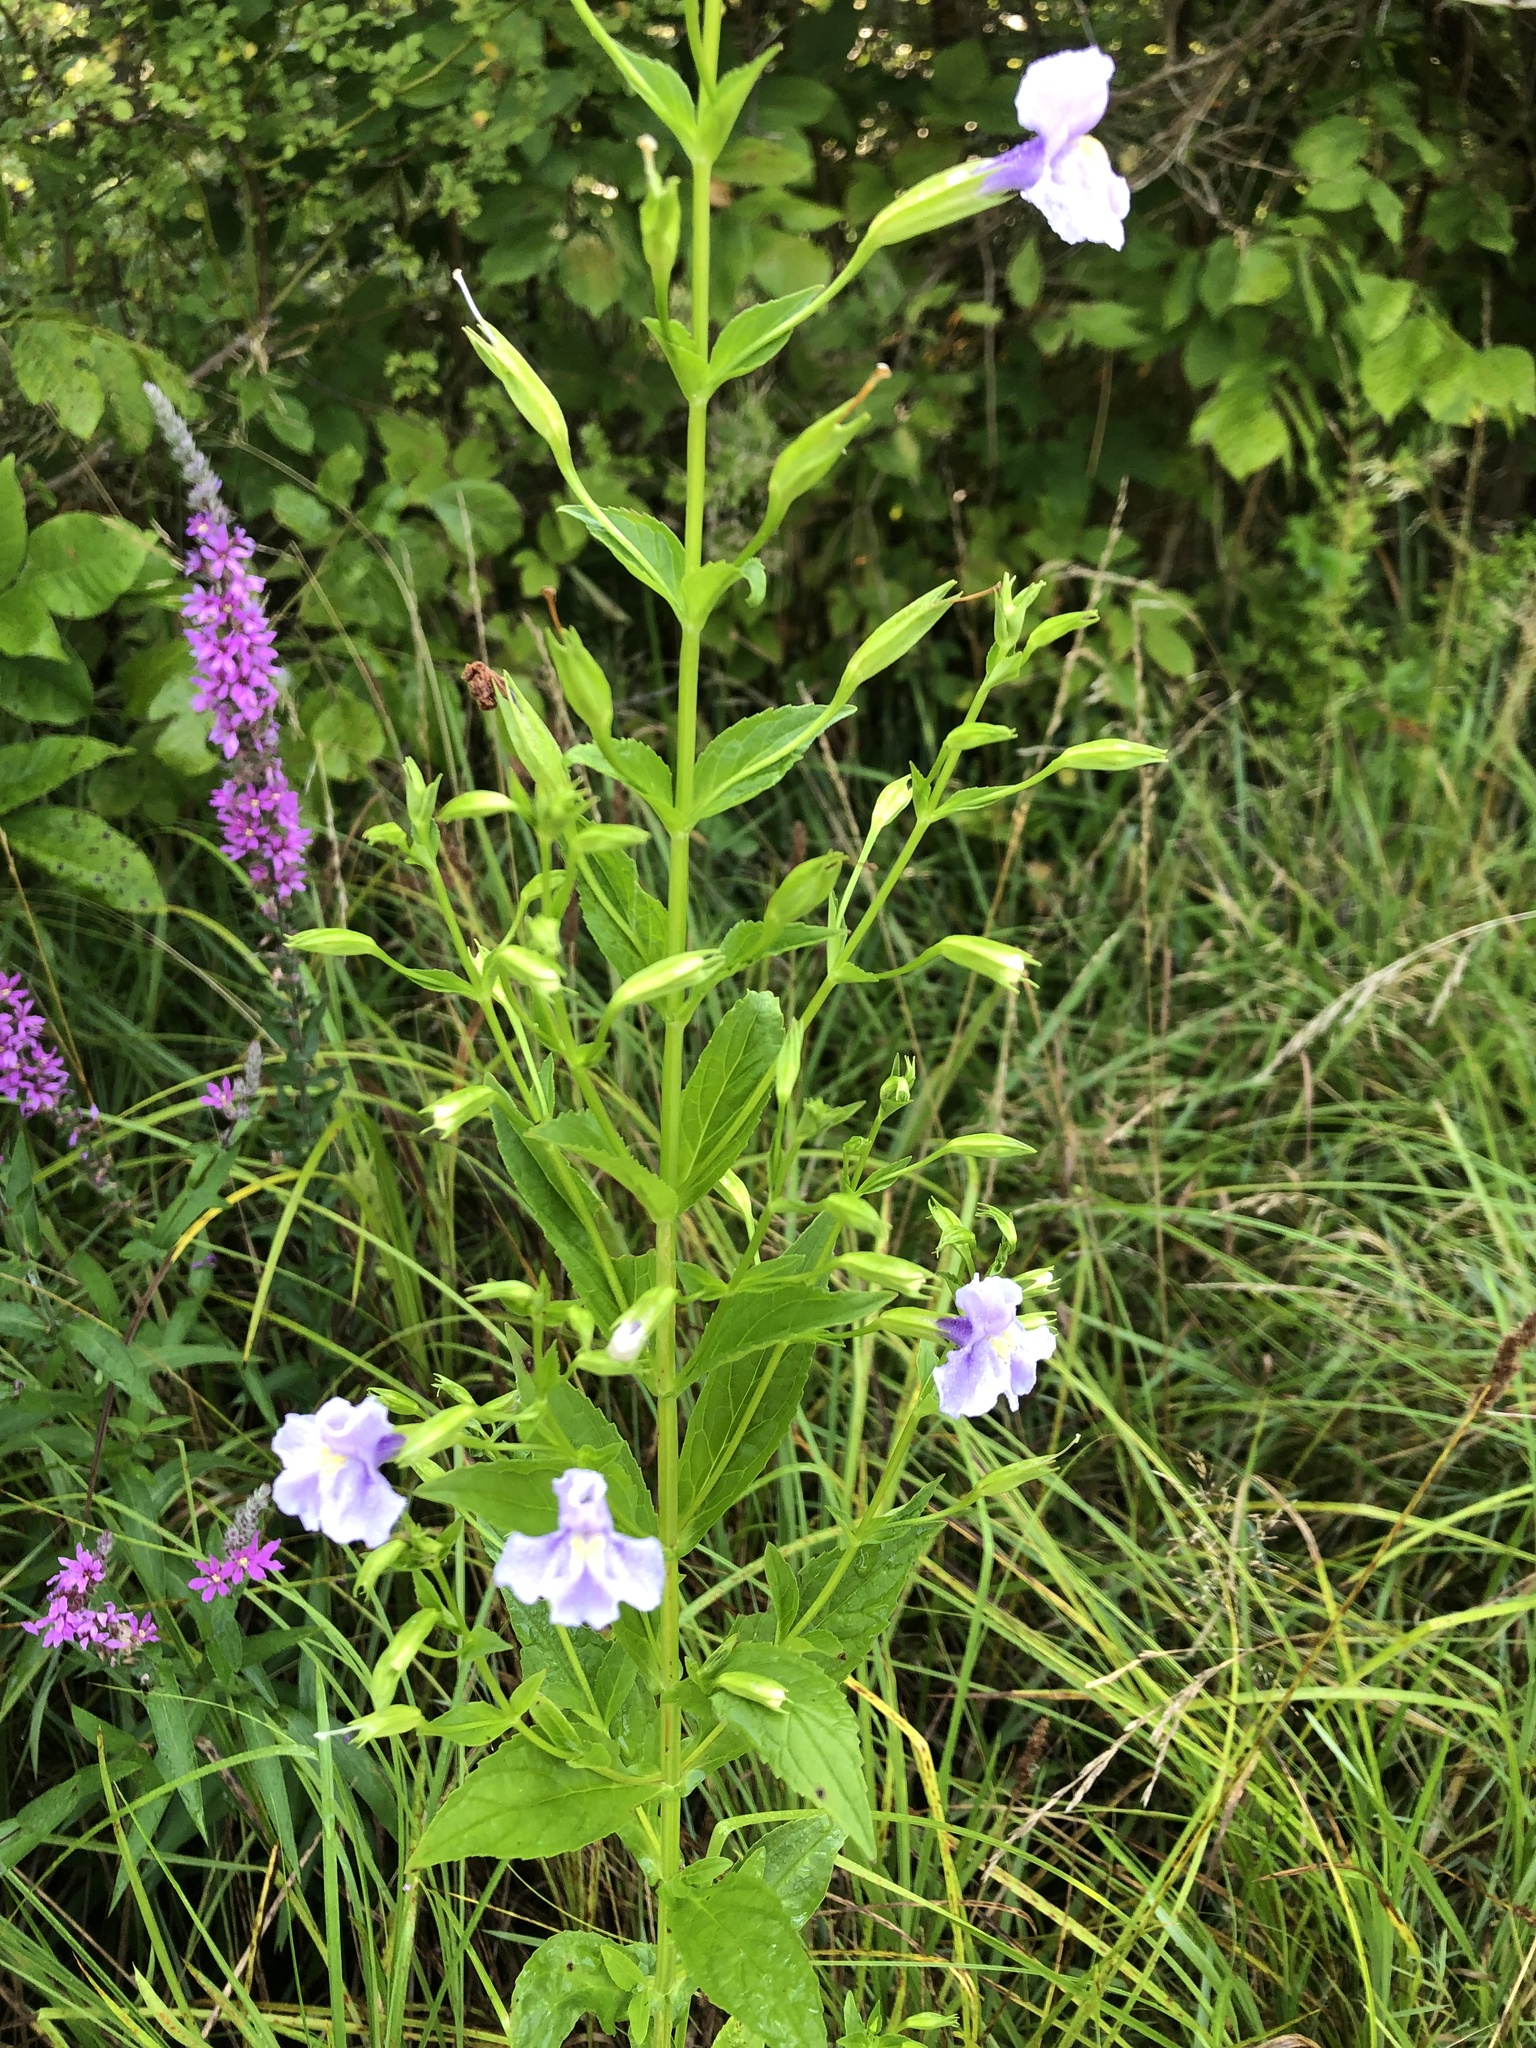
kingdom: Plantae
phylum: Tracheophyta
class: Magnoliopsida
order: Lamiales
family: Phrymaceae
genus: Mimulus
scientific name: Mimulus ringens
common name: Allegheny monkeyflower
